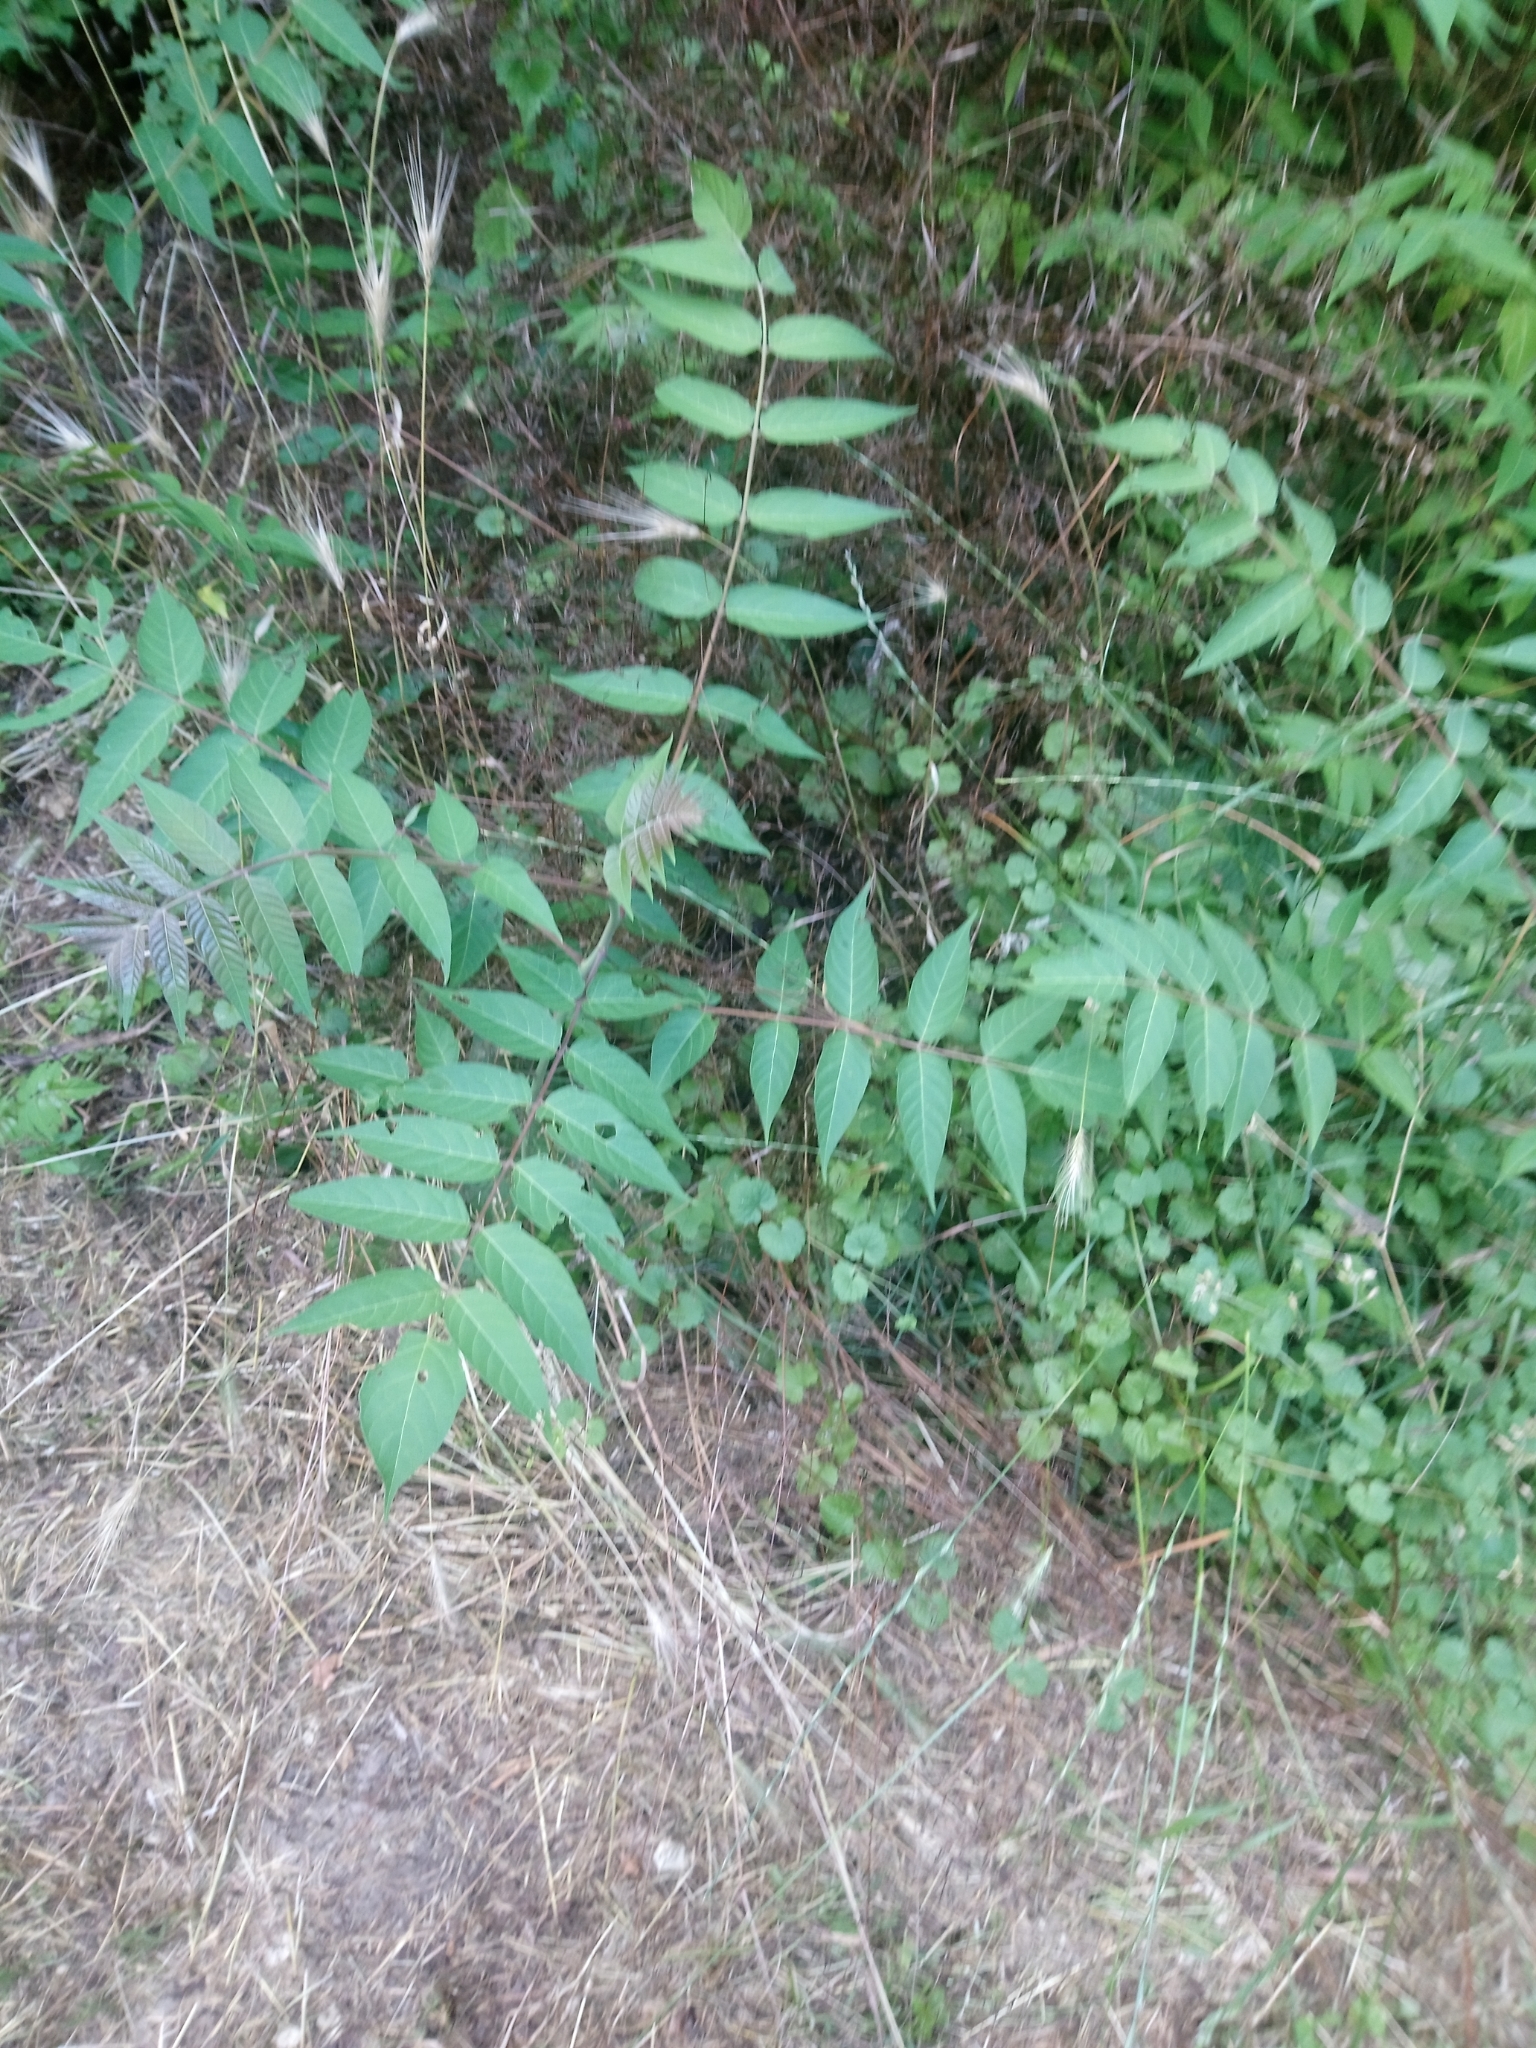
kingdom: Plantae
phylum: Tracheophyta
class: Magnoliopsida
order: Sapindales
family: Simaroubaceae
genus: Ailanthus
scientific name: Ailanthus altissima
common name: Tree-of-heaven
